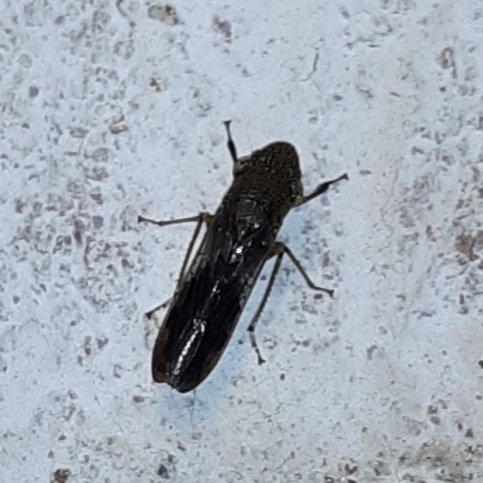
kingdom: Animalia
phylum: Arthropoda
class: Insecta
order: Hemiptera
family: Cicadellidae
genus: Homalodisca
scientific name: Homalodisca vitripennis
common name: Glassy-winged sharpshooter
